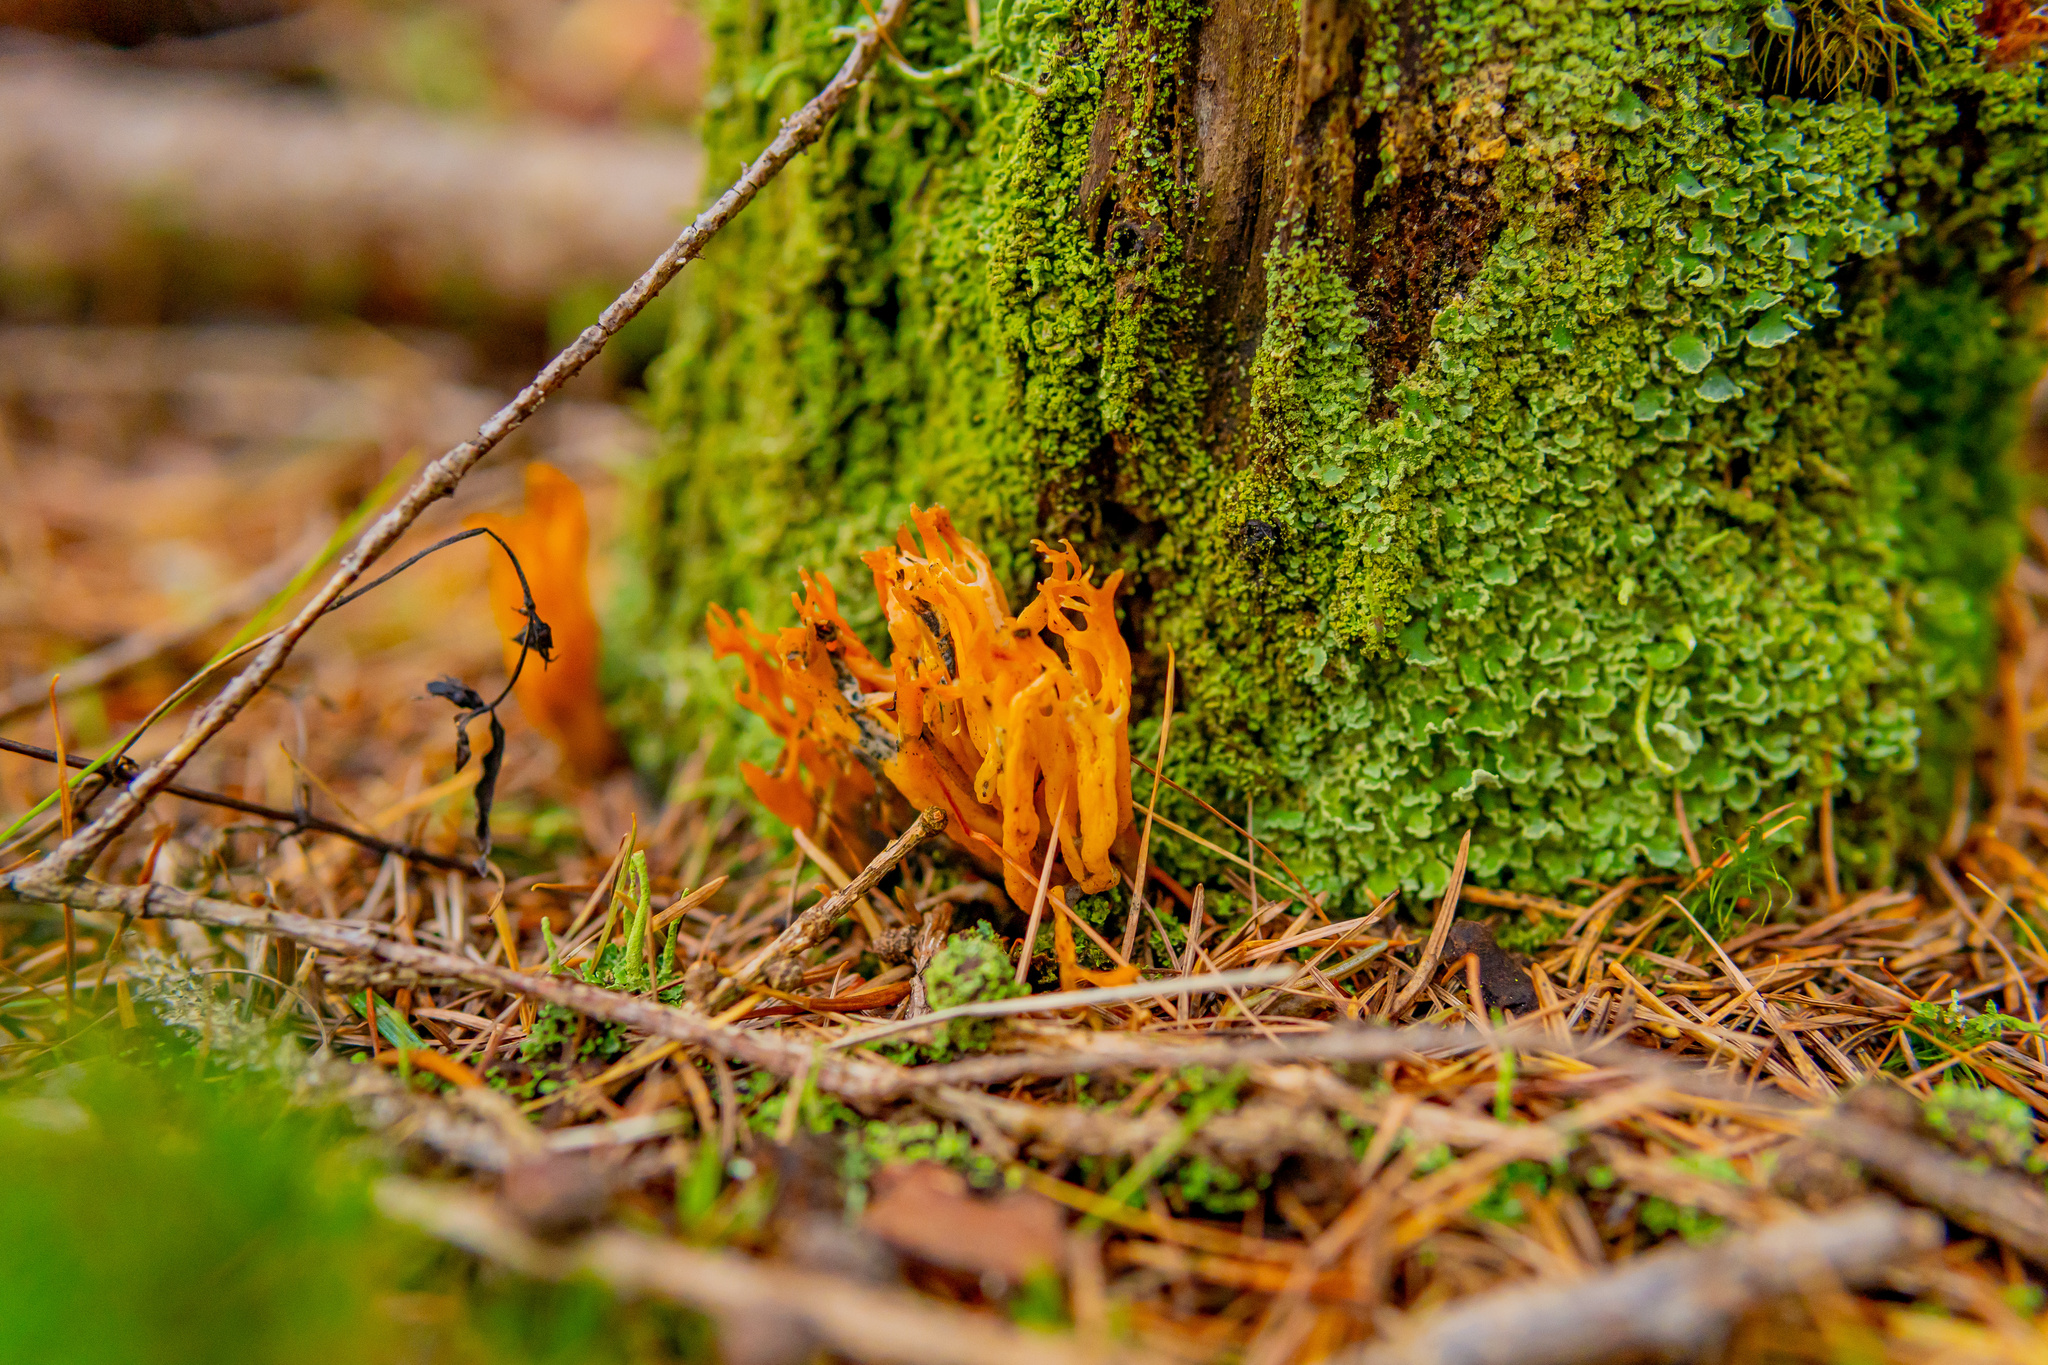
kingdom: Fungi
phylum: Basidiomycota
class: Dacrymycetes
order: Dacrymycetales
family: Dacrymycetaceae
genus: Calocera
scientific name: Calocera viscosa
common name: Yellow stagshorn
